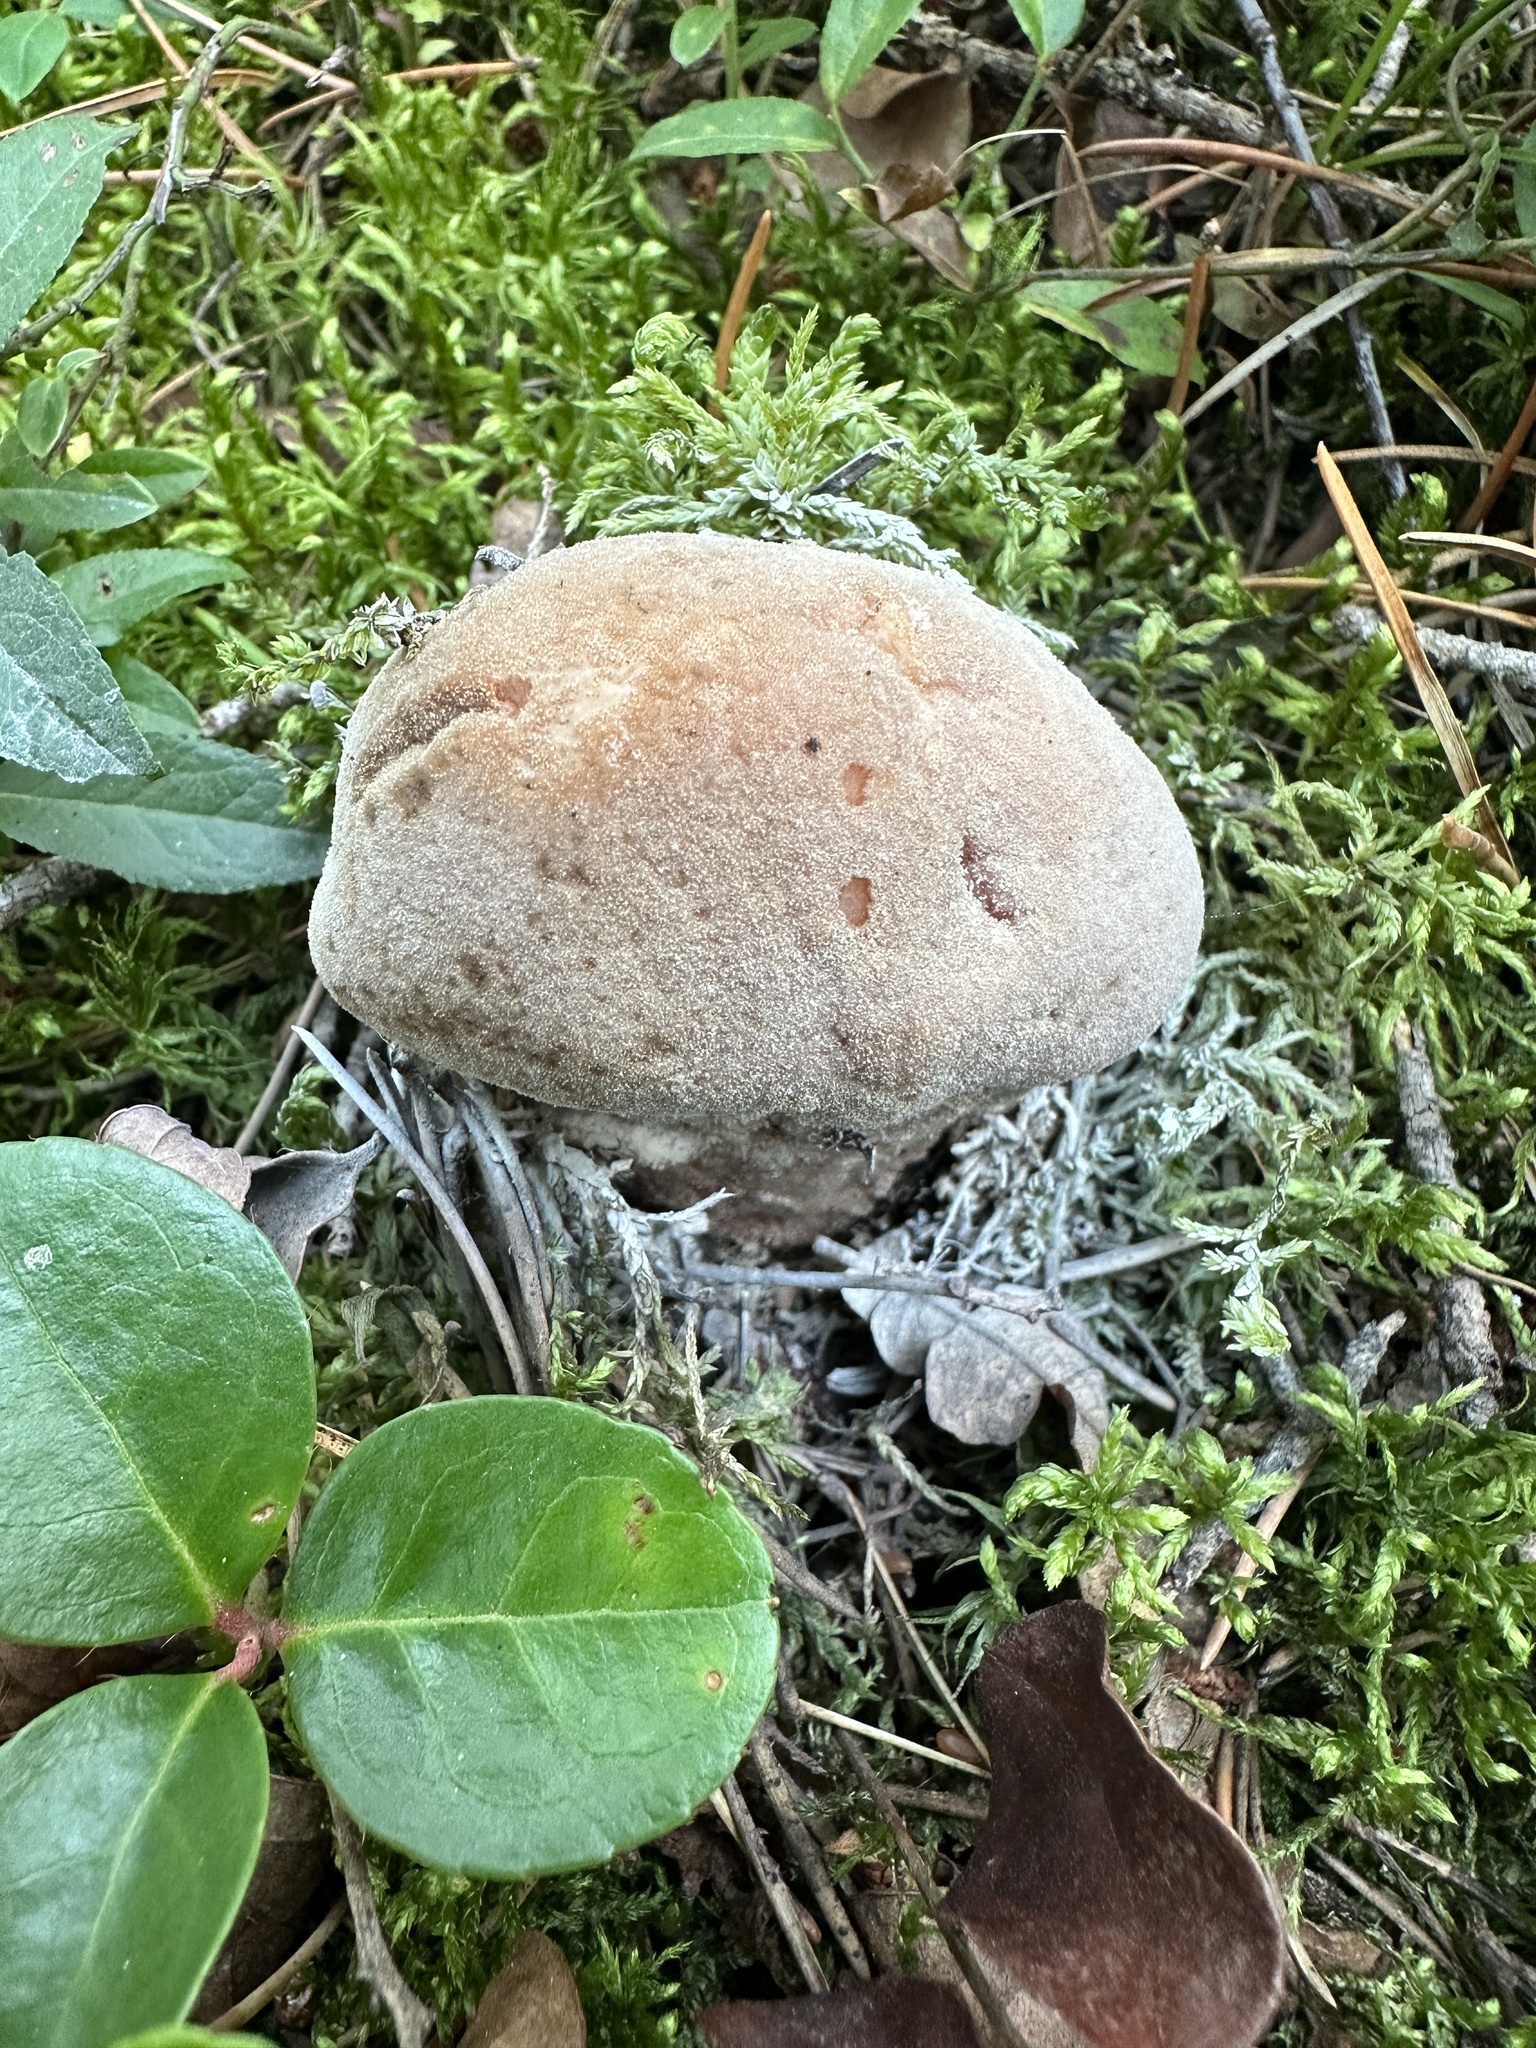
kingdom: Fungi
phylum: Ascomycota
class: Sordariomycetes
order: Hypocreales
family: Hypocreaceae
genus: Hypomyces
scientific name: Hypomyces hyalinus
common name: Amanita mold
